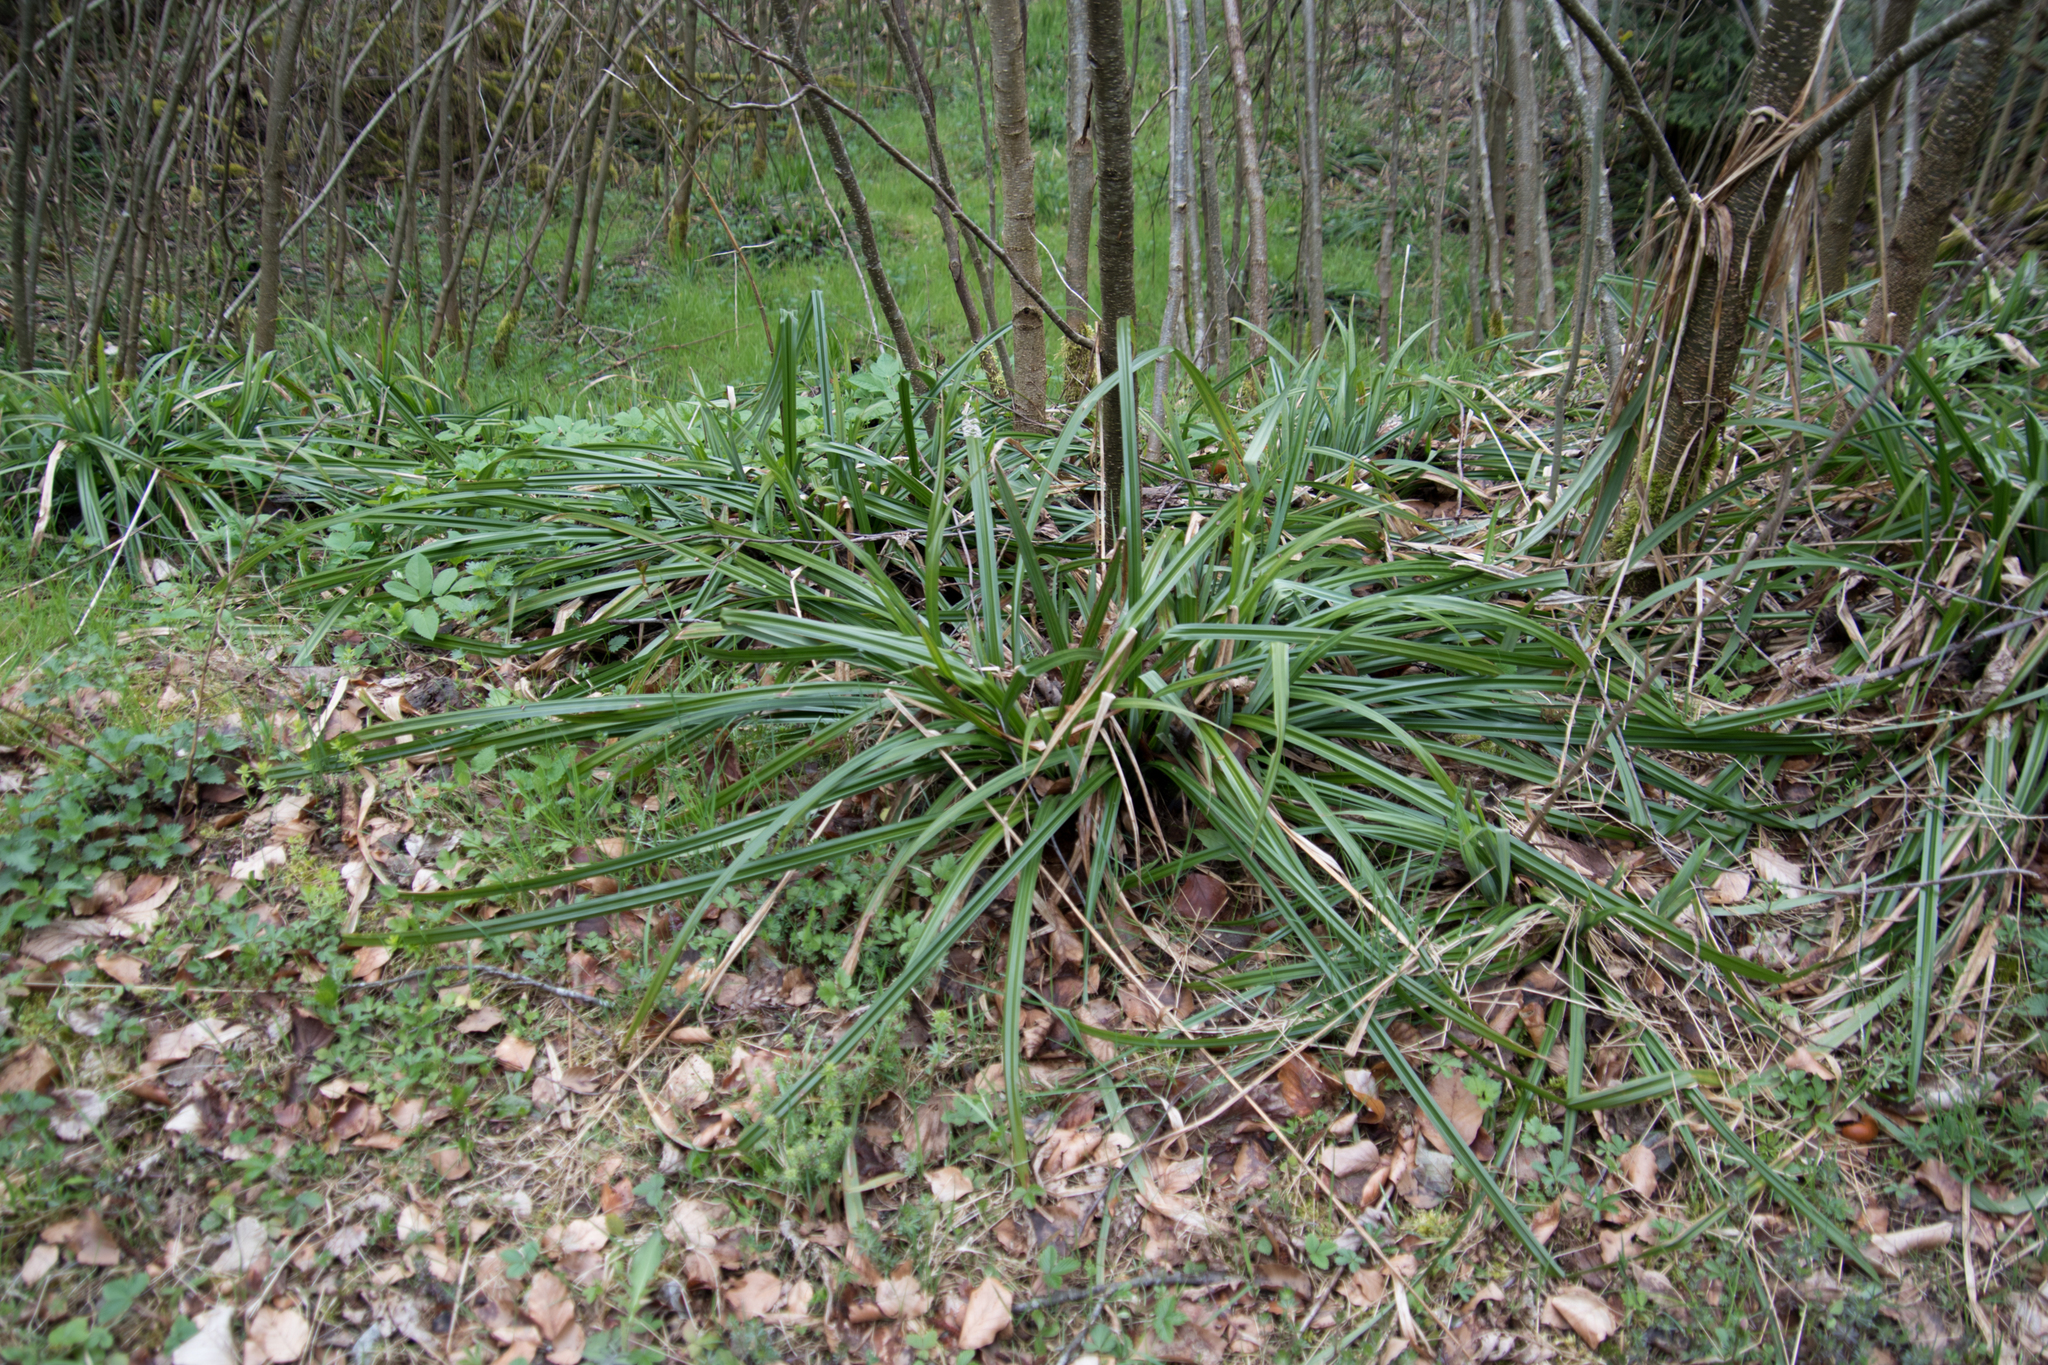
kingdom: Plantae
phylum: Tracheophyta
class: Liliopsida
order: Poales
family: Cyperaceae
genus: Carex
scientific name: Carex pendula
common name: Pendulous sedge
